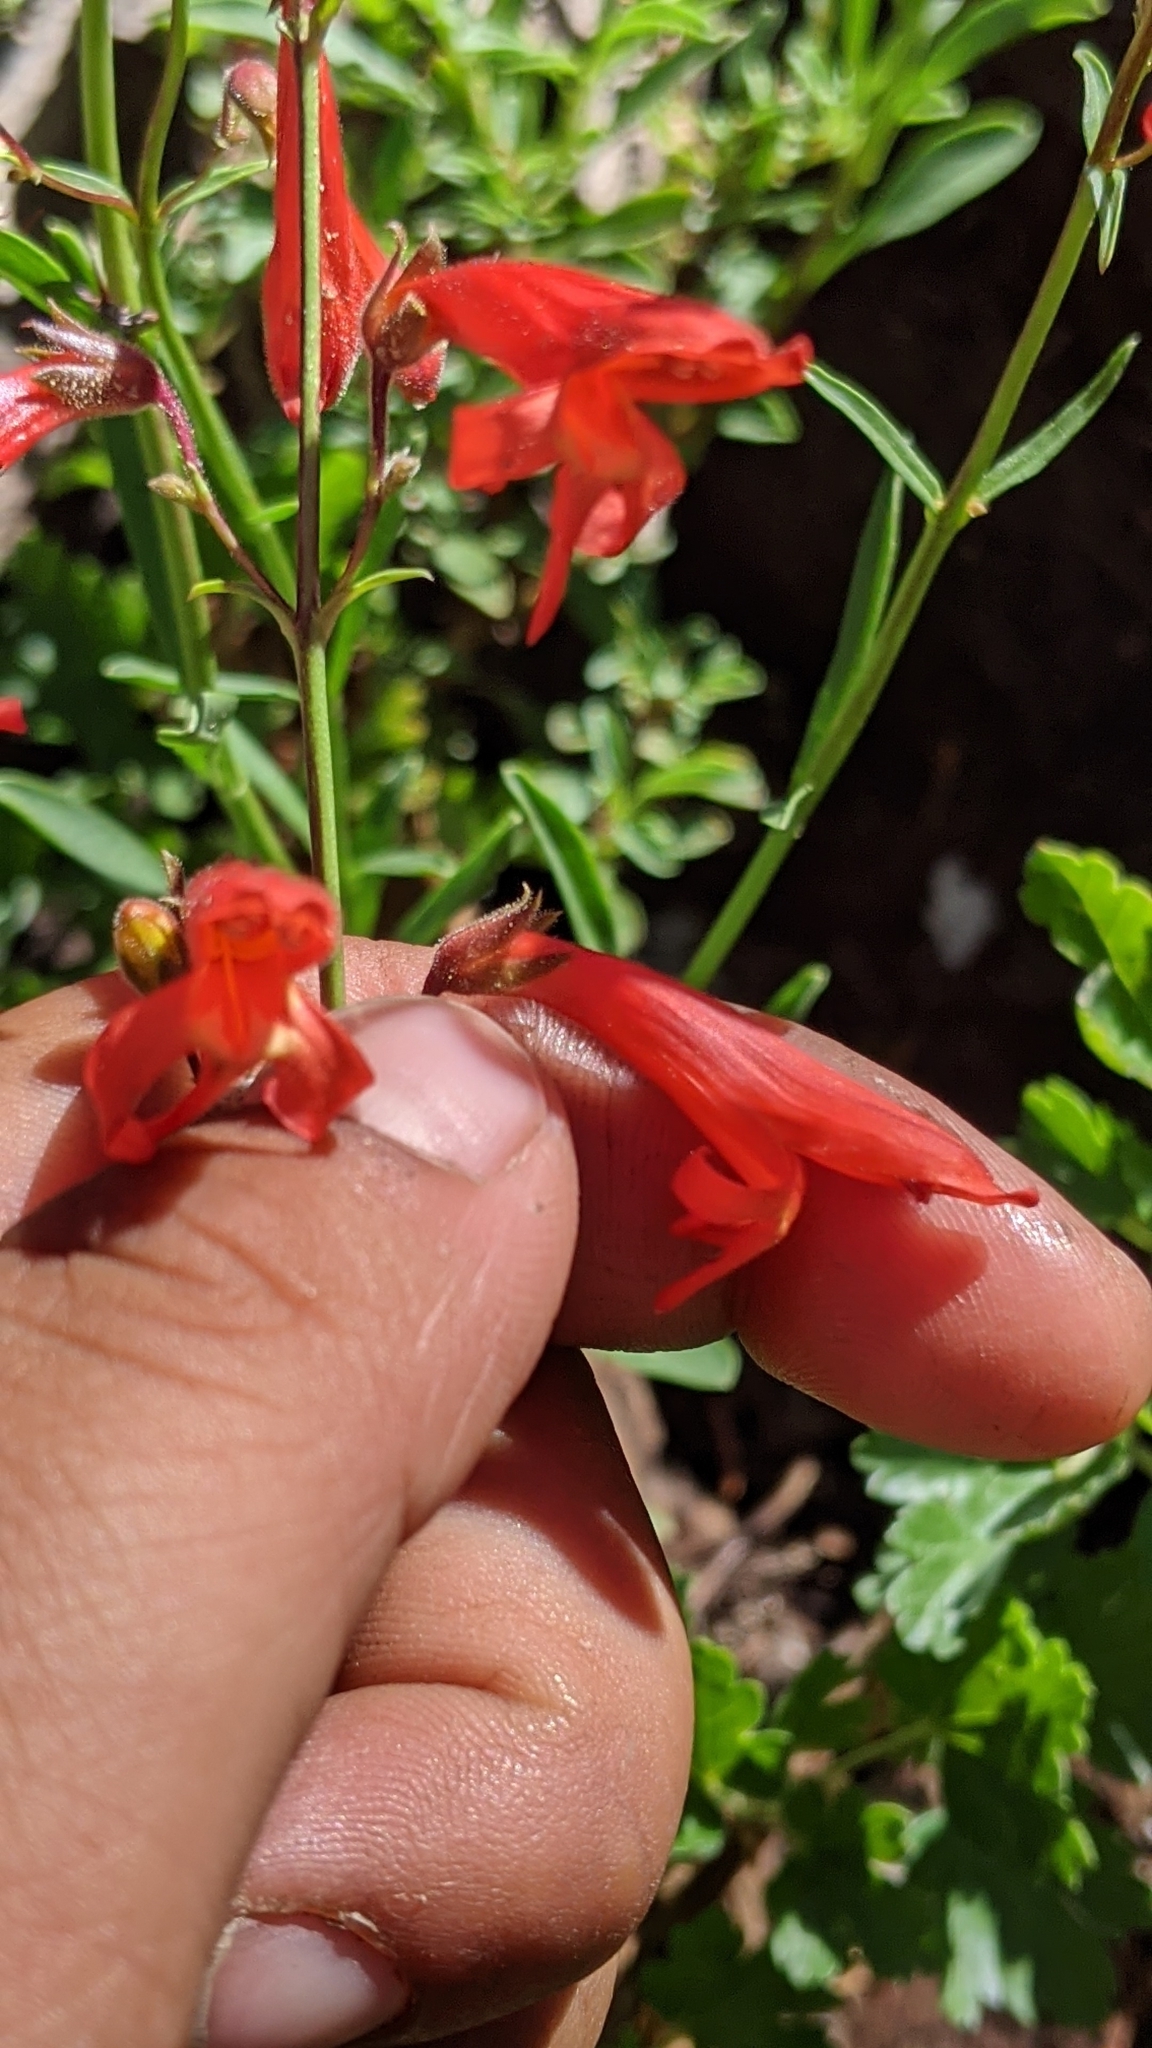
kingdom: Plantae
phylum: Tracheophyta
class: Magnoliopsida
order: Lamiales
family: Plantaginaceae
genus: Penstemon
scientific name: Penstemon rostriflorus
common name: Bridges's penstemon
